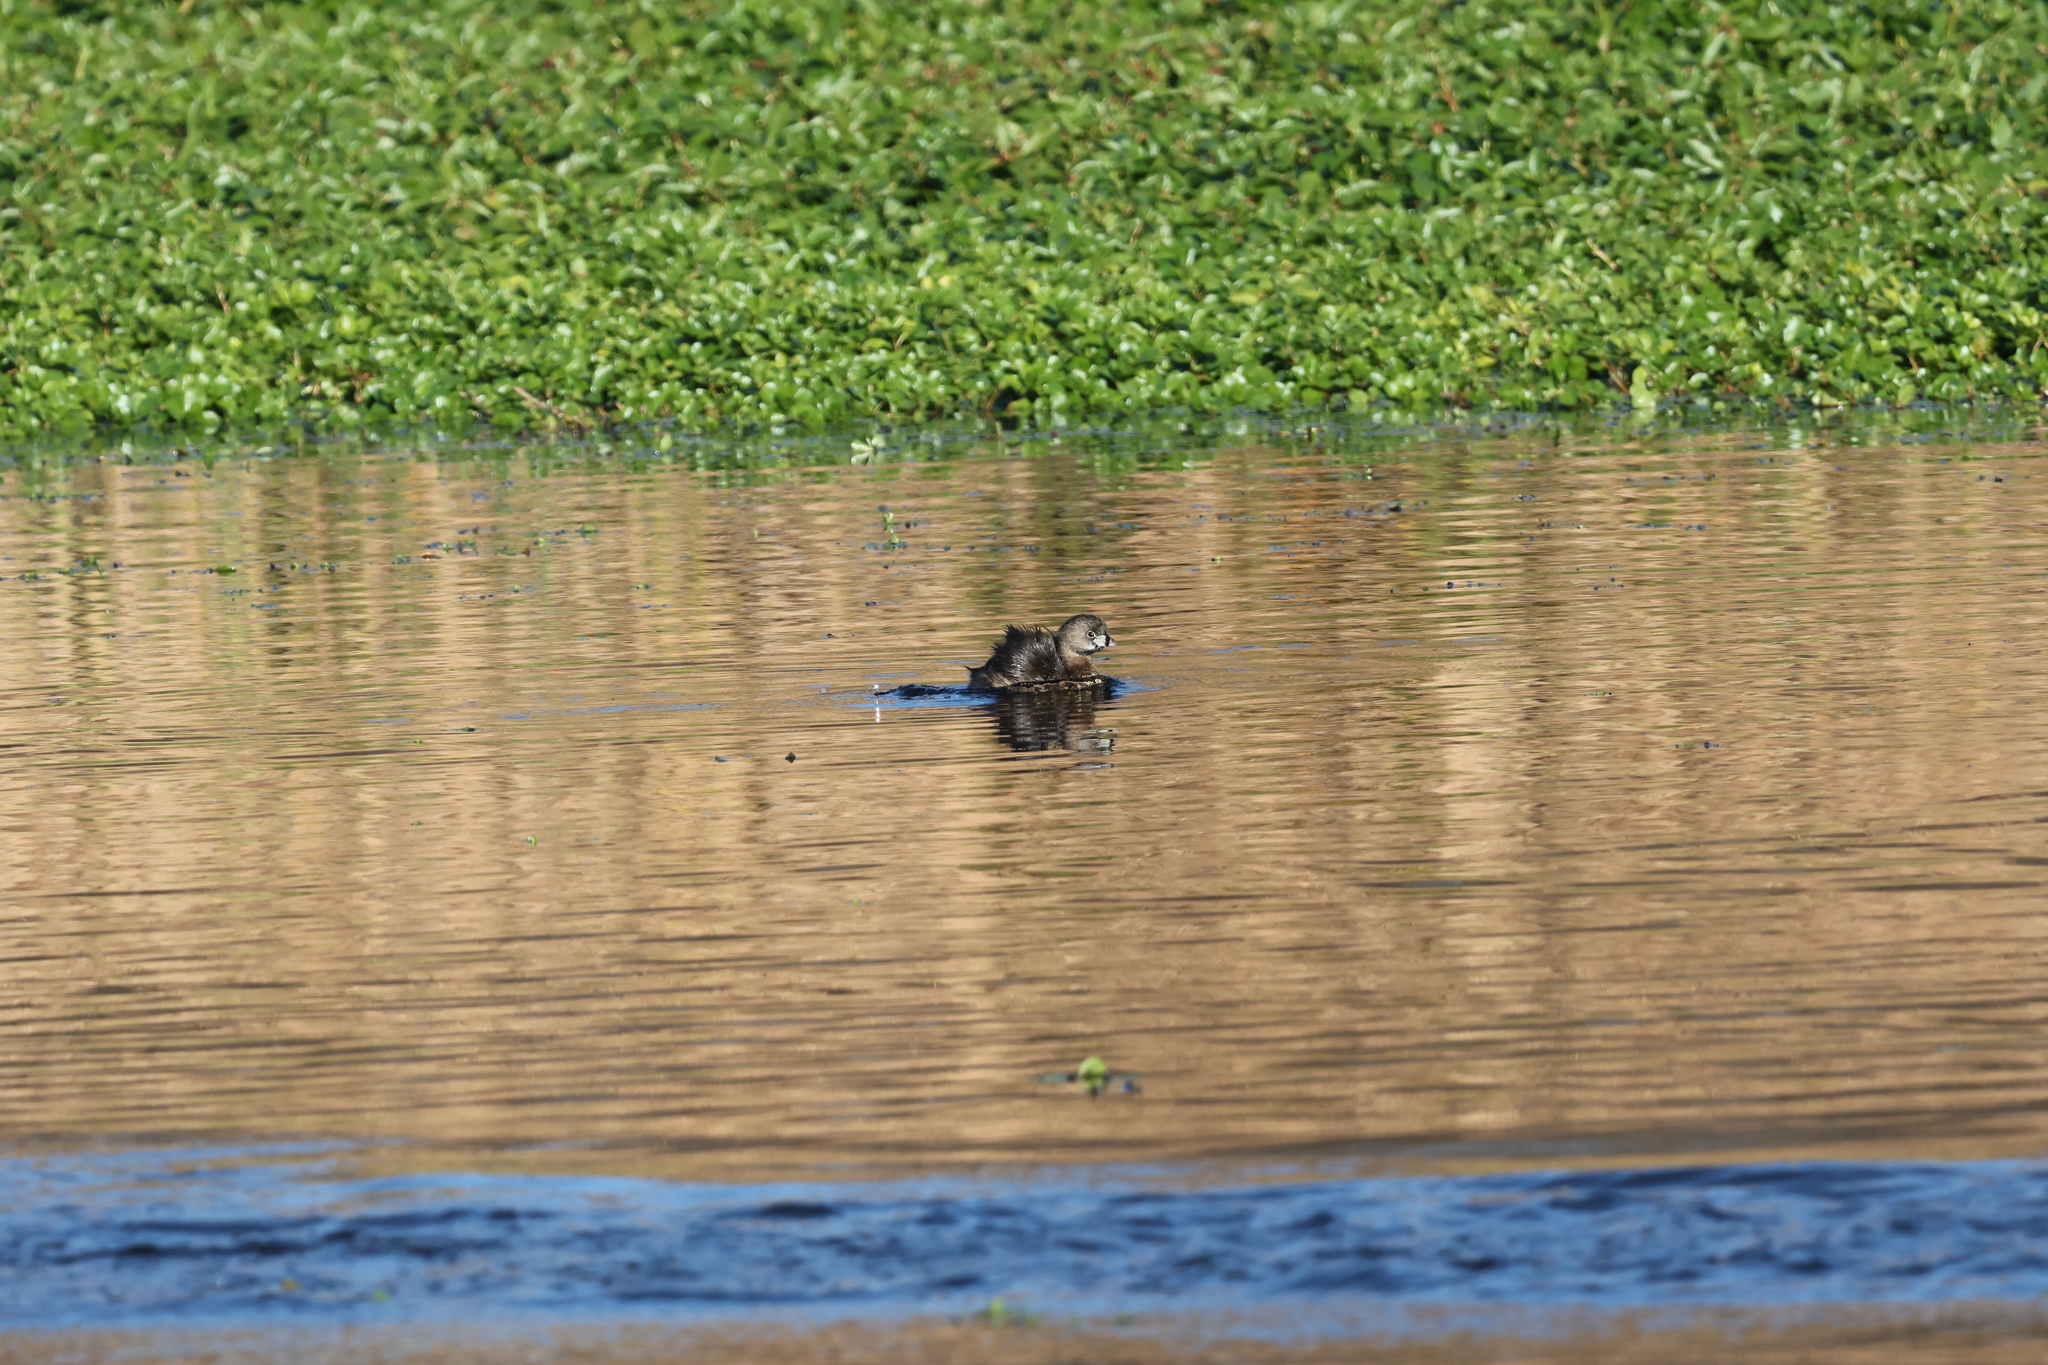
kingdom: Animalia
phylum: Chordata
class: Aves
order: Podicipediformes
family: Podicipedidae
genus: Podilymbus
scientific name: Podilymbus podiceps
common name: Pied-billed grebe
